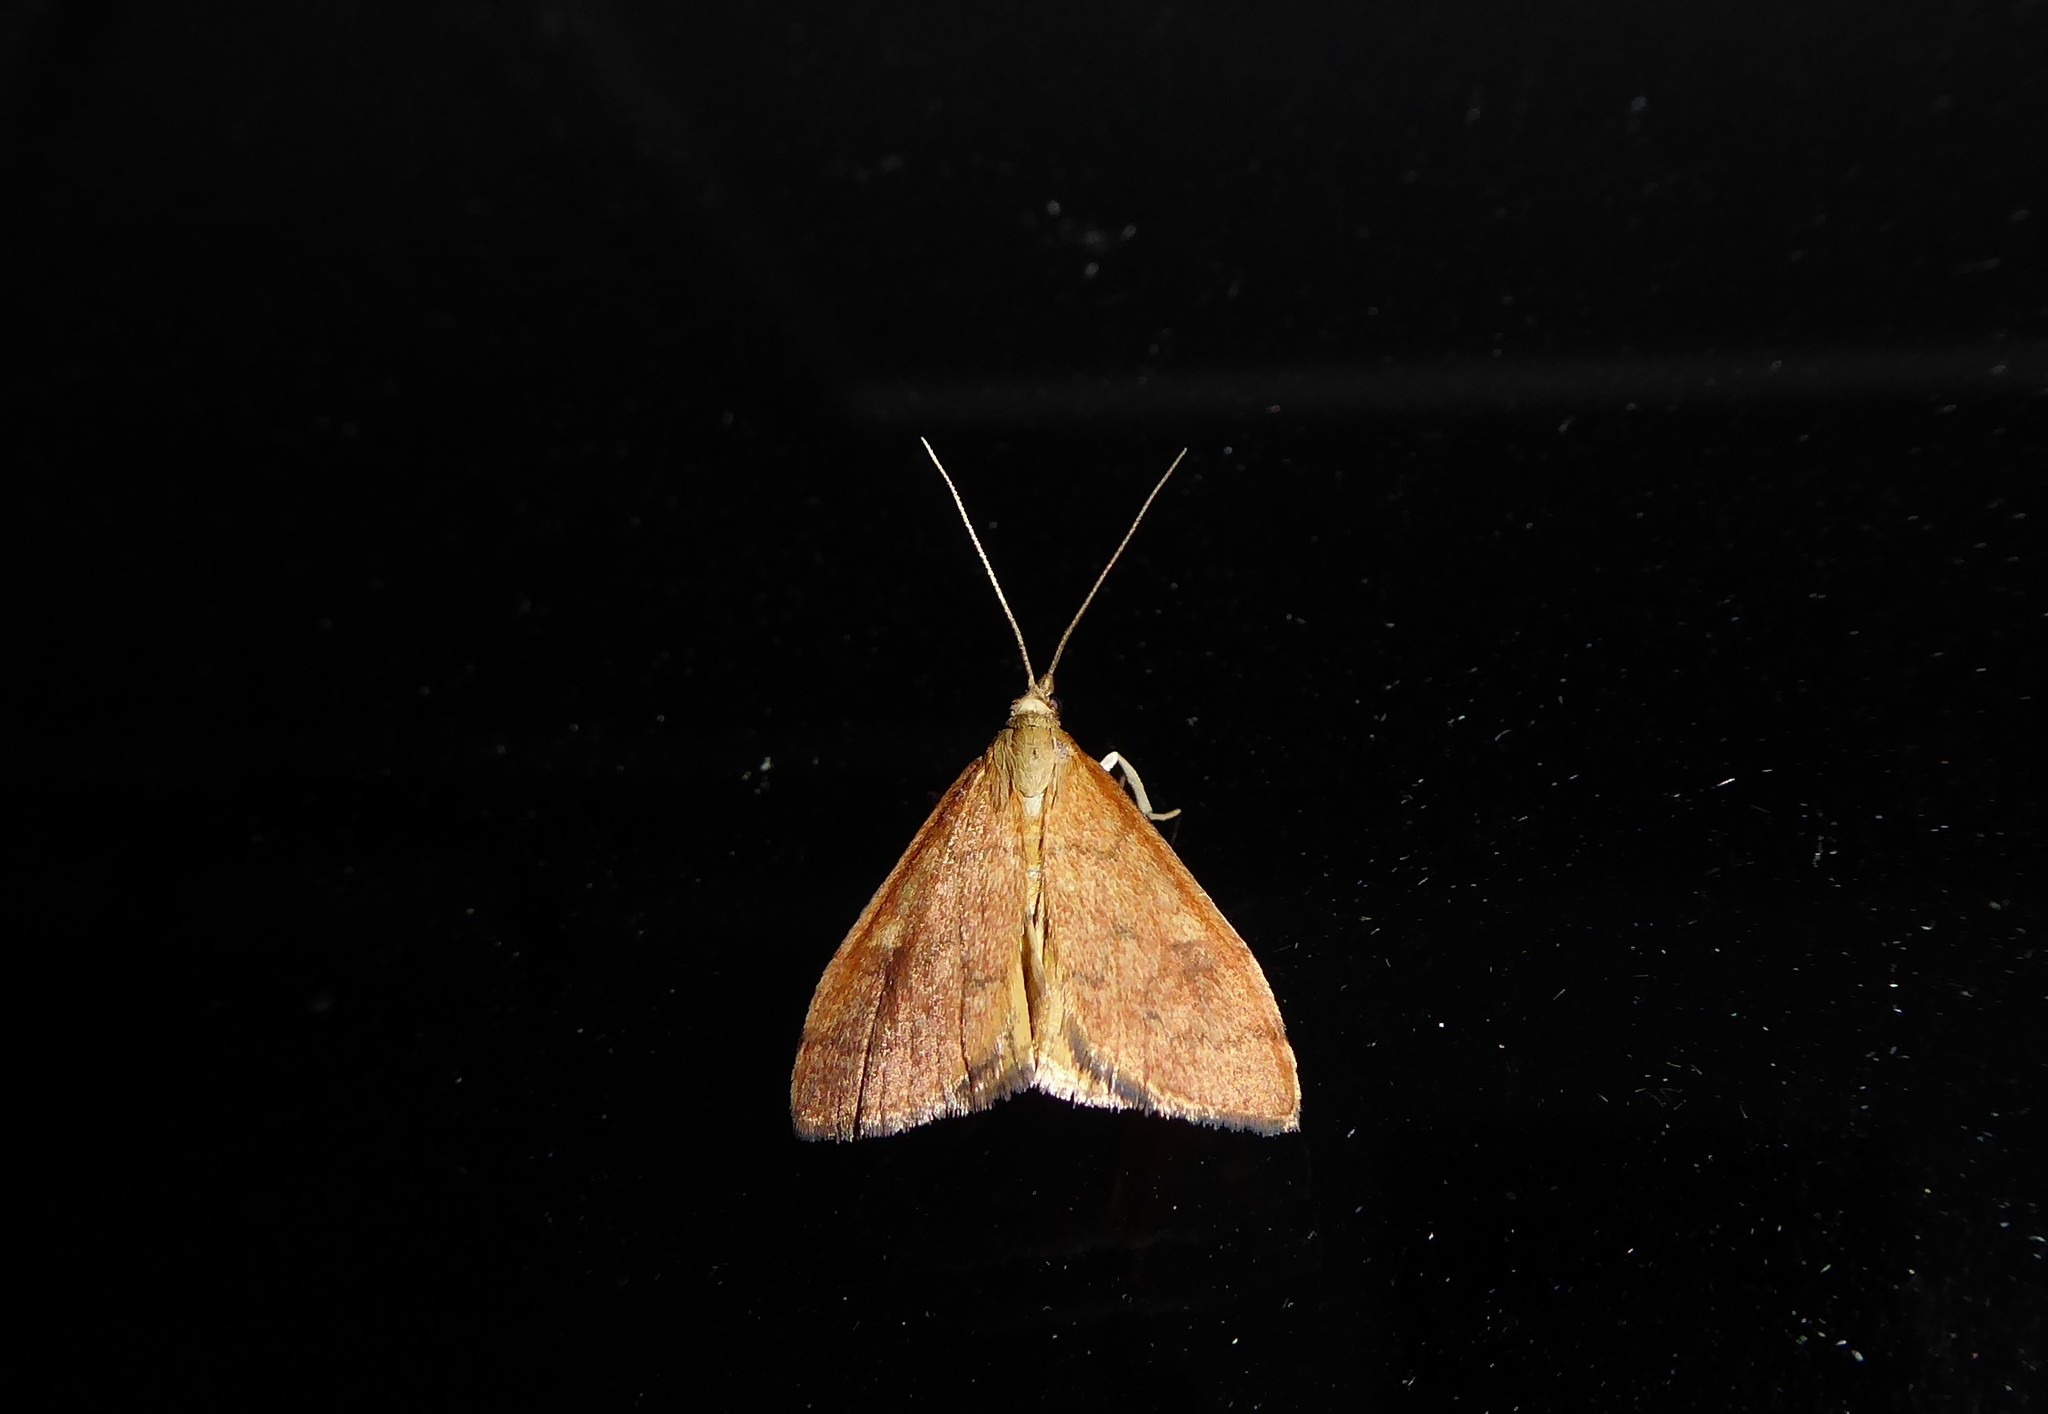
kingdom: Animalia
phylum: Arthropoda
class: Insecta
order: Lepidoptera
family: Crambidae
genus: Udea
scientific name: Udea Mnesictena flavidalis
